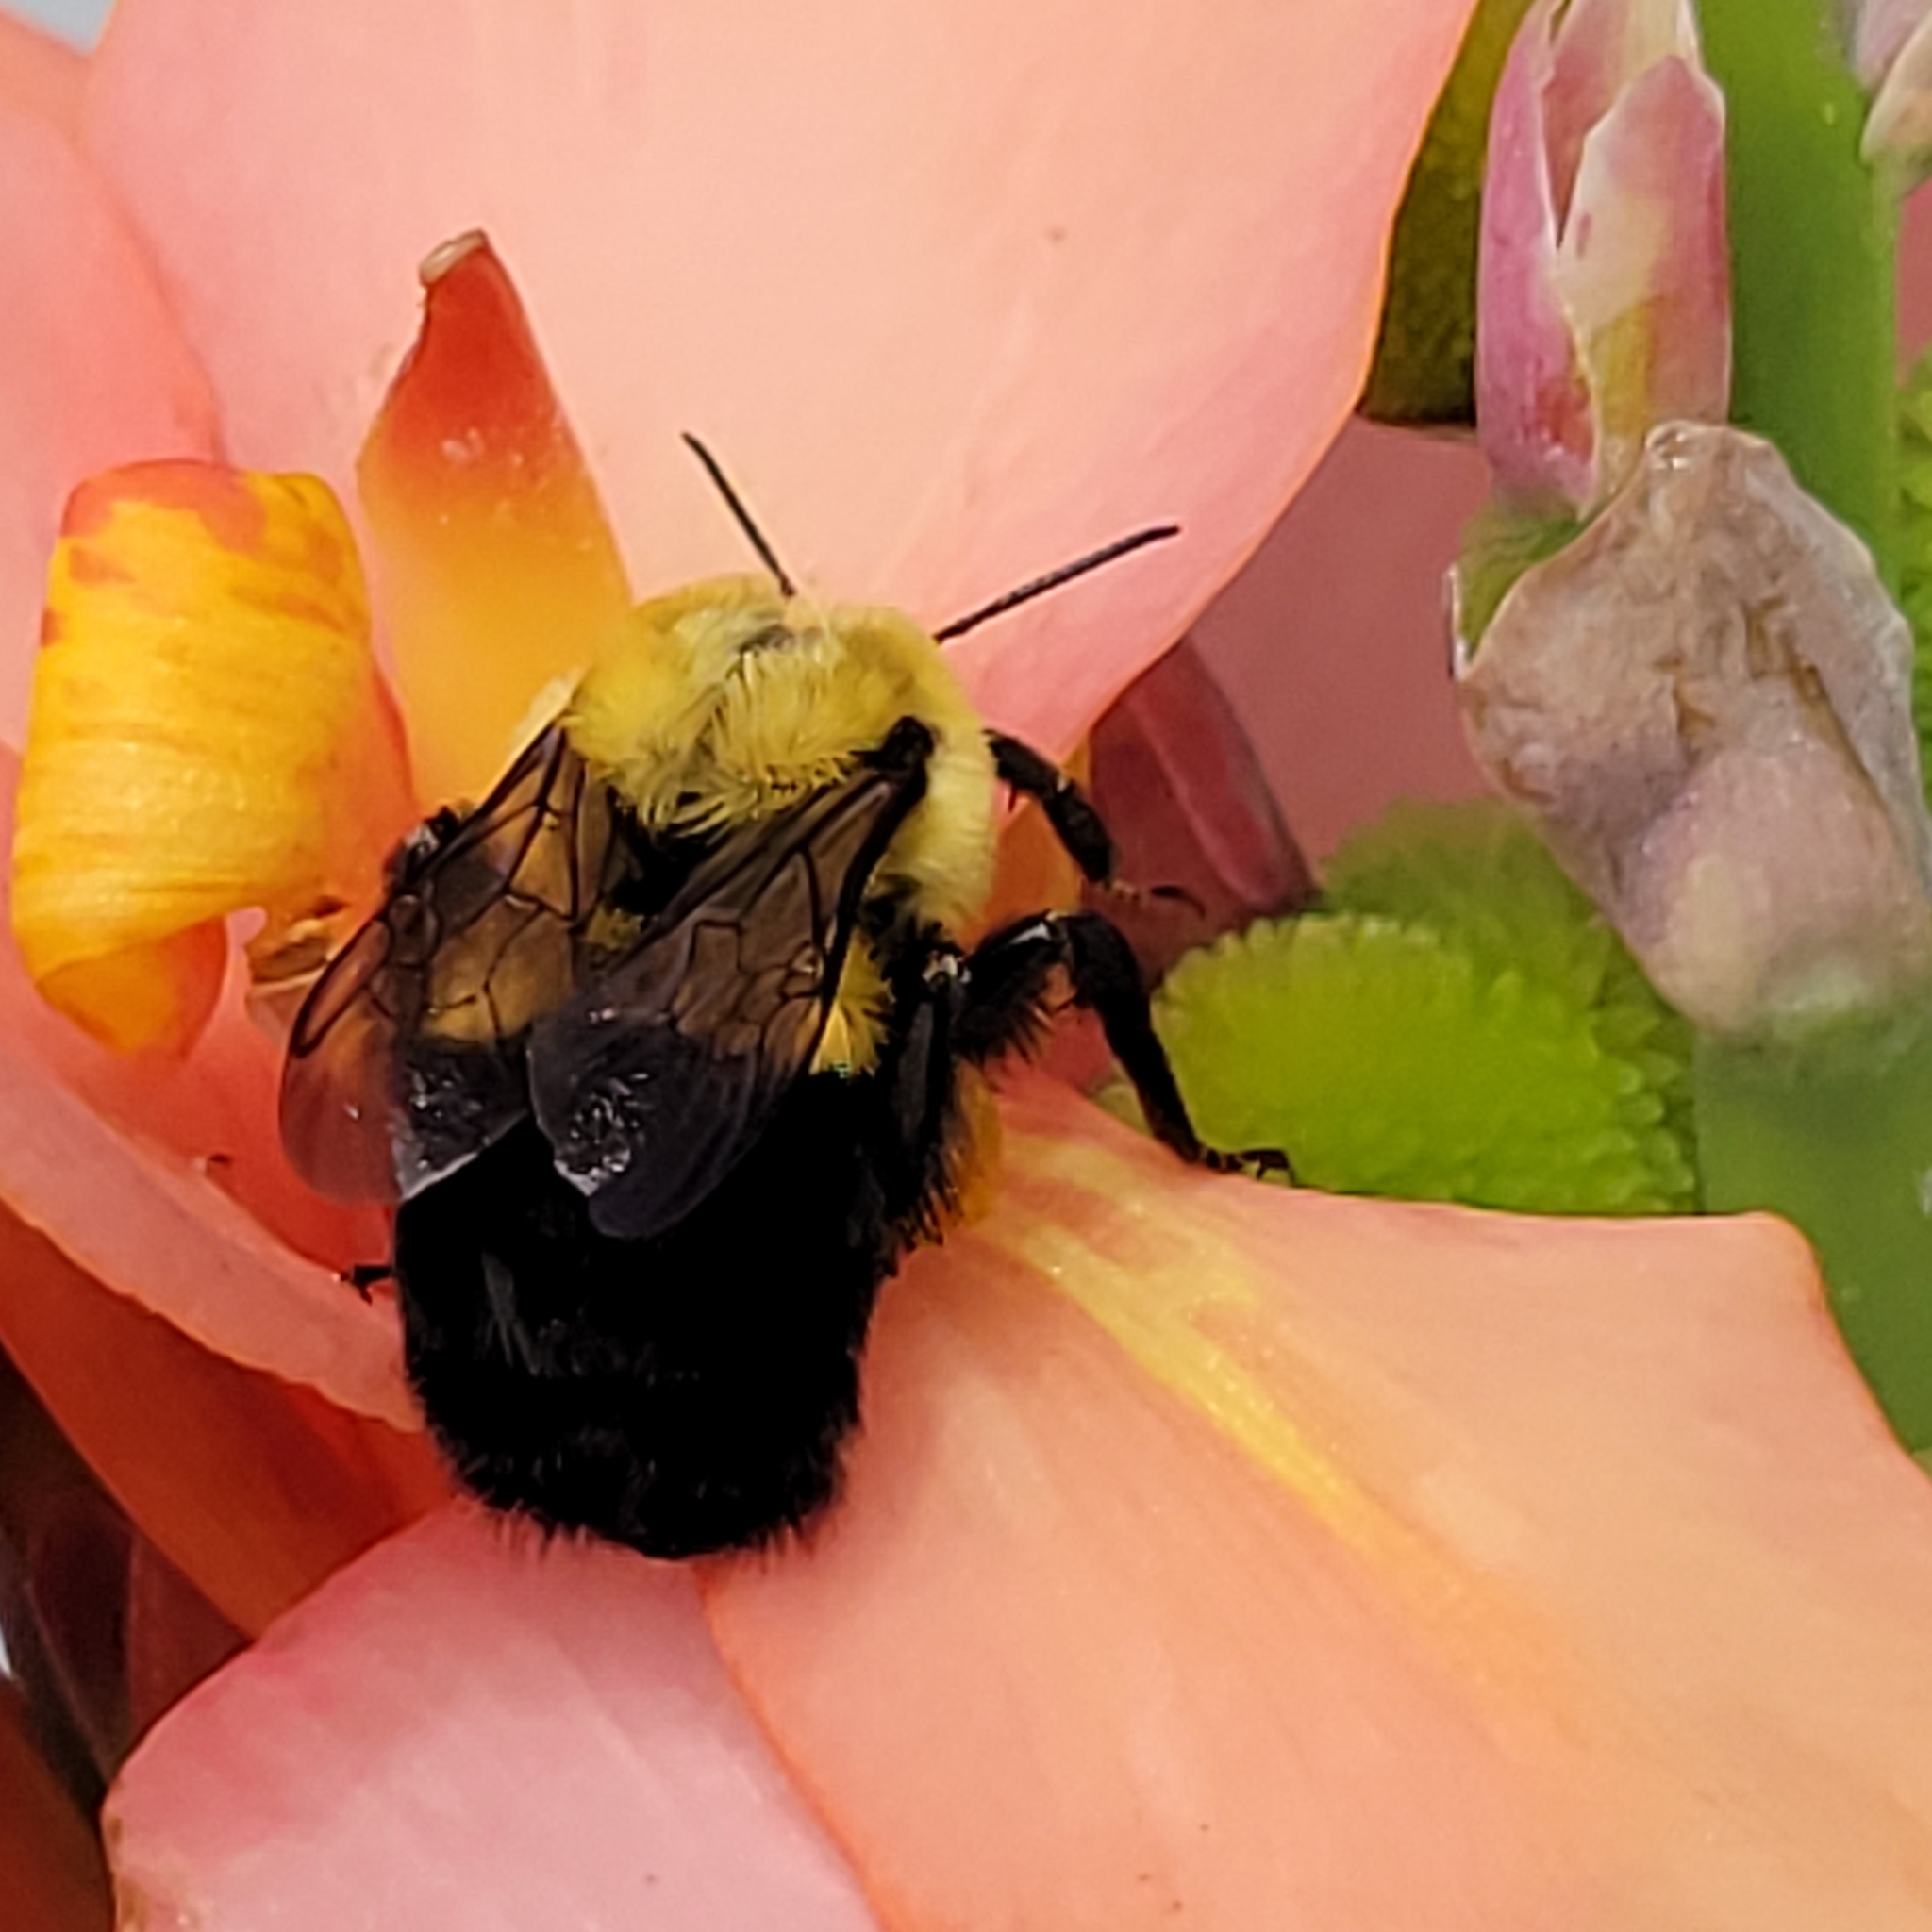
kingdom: Animalia
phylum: Arthropoda
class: Insecta
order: Hymenoptera
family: Apidae
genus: Bombus
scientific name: Bombus impatiens
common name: Common eastern bumble bee
